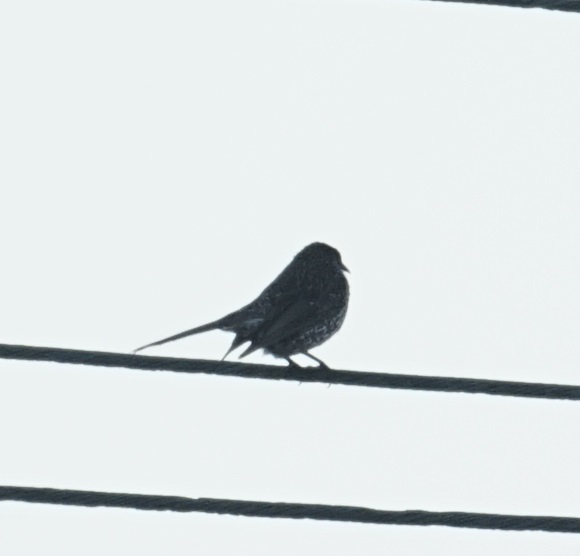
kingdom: Animalia
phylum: Chordata
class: Aves
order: Passeriformes
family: Meliphagidae
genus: Anthochaera
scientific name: Anthochaera chrysoptera
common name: Little wattlebird
